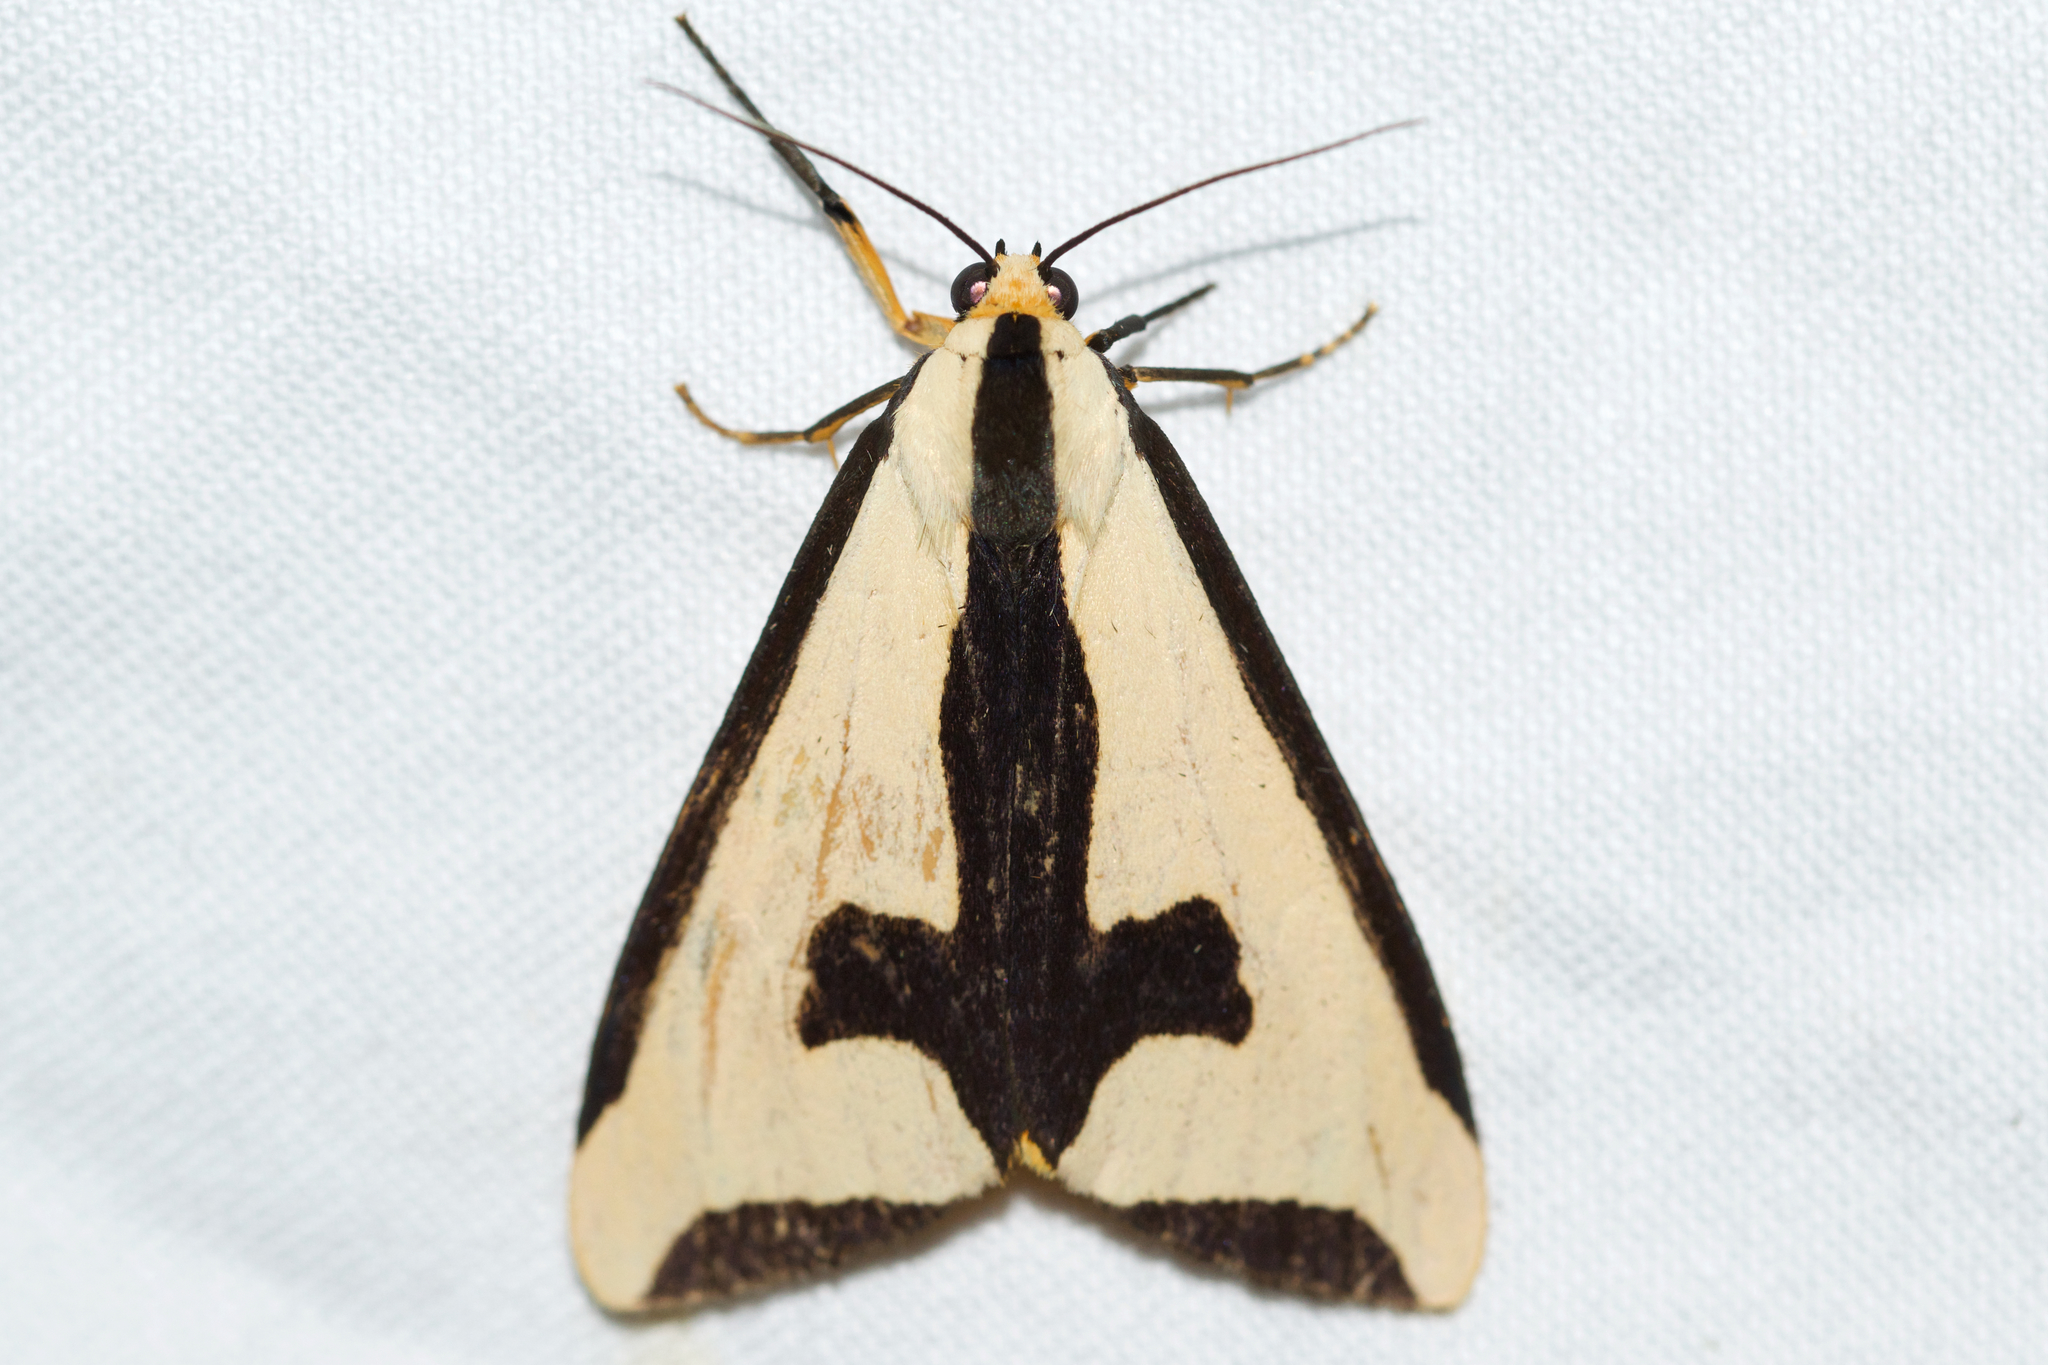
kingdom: Animalia
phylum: Arthropoda
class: Insecta
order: Lepidoptera
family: Erebidae
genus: Haploa
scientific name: Haploa clymene
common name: Clymene moth
